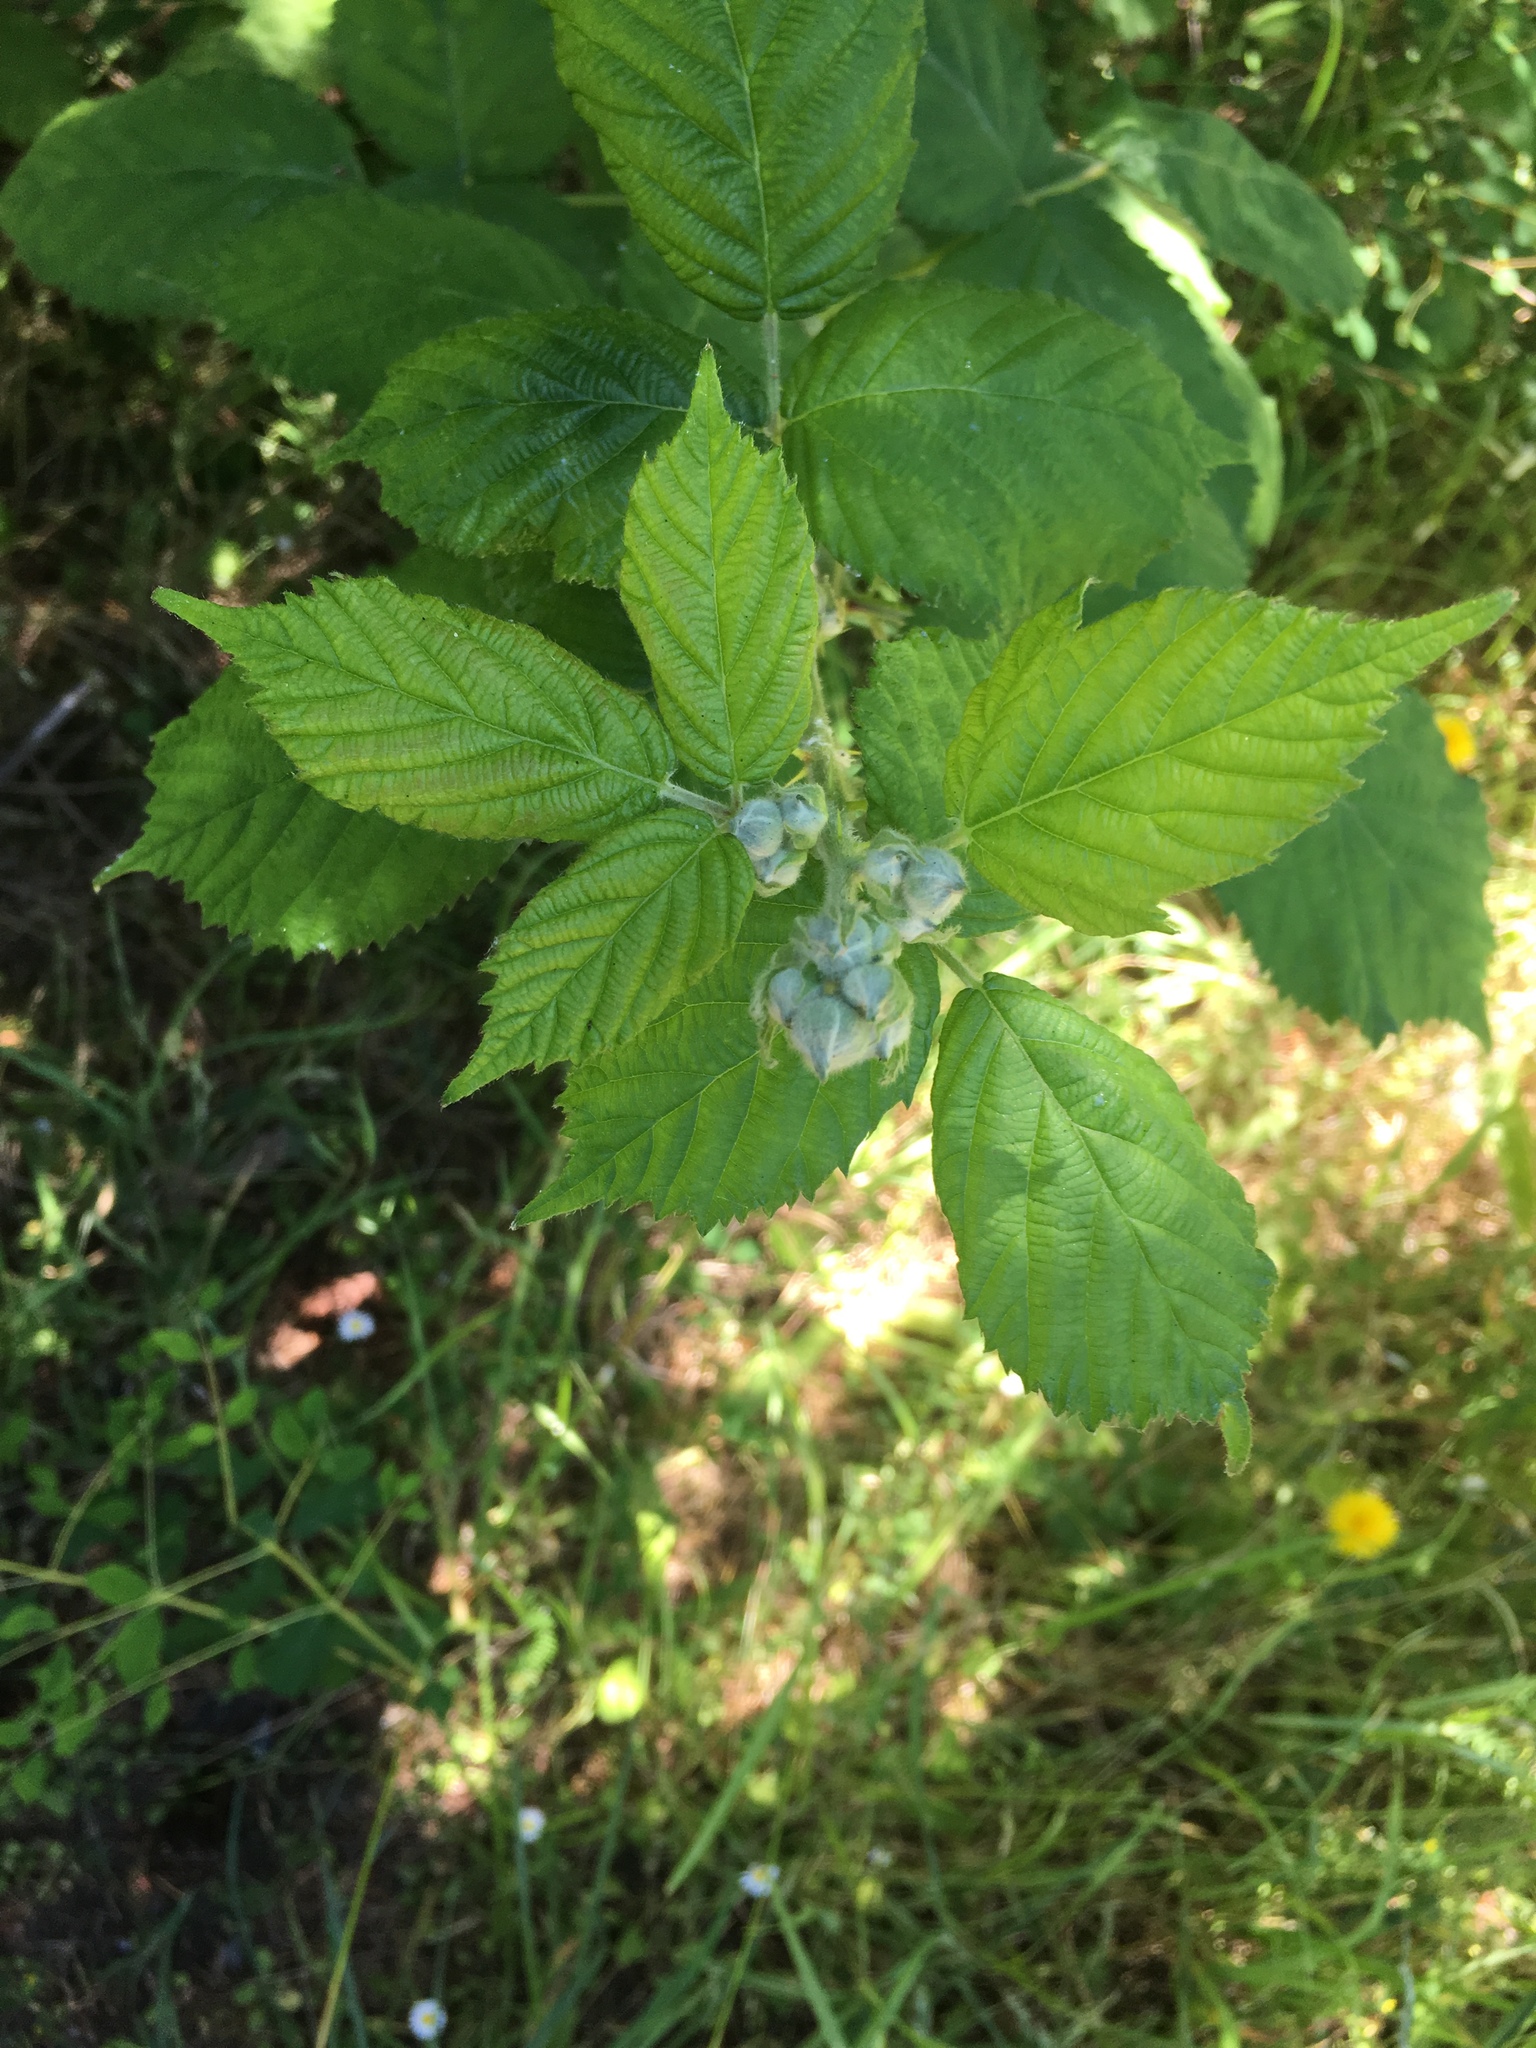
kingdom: Plantae
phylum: Tracheophyta
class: Magnoliopsida
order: Rosales
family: Rosaceae
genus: Rubus
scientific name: Rubus bifrons
